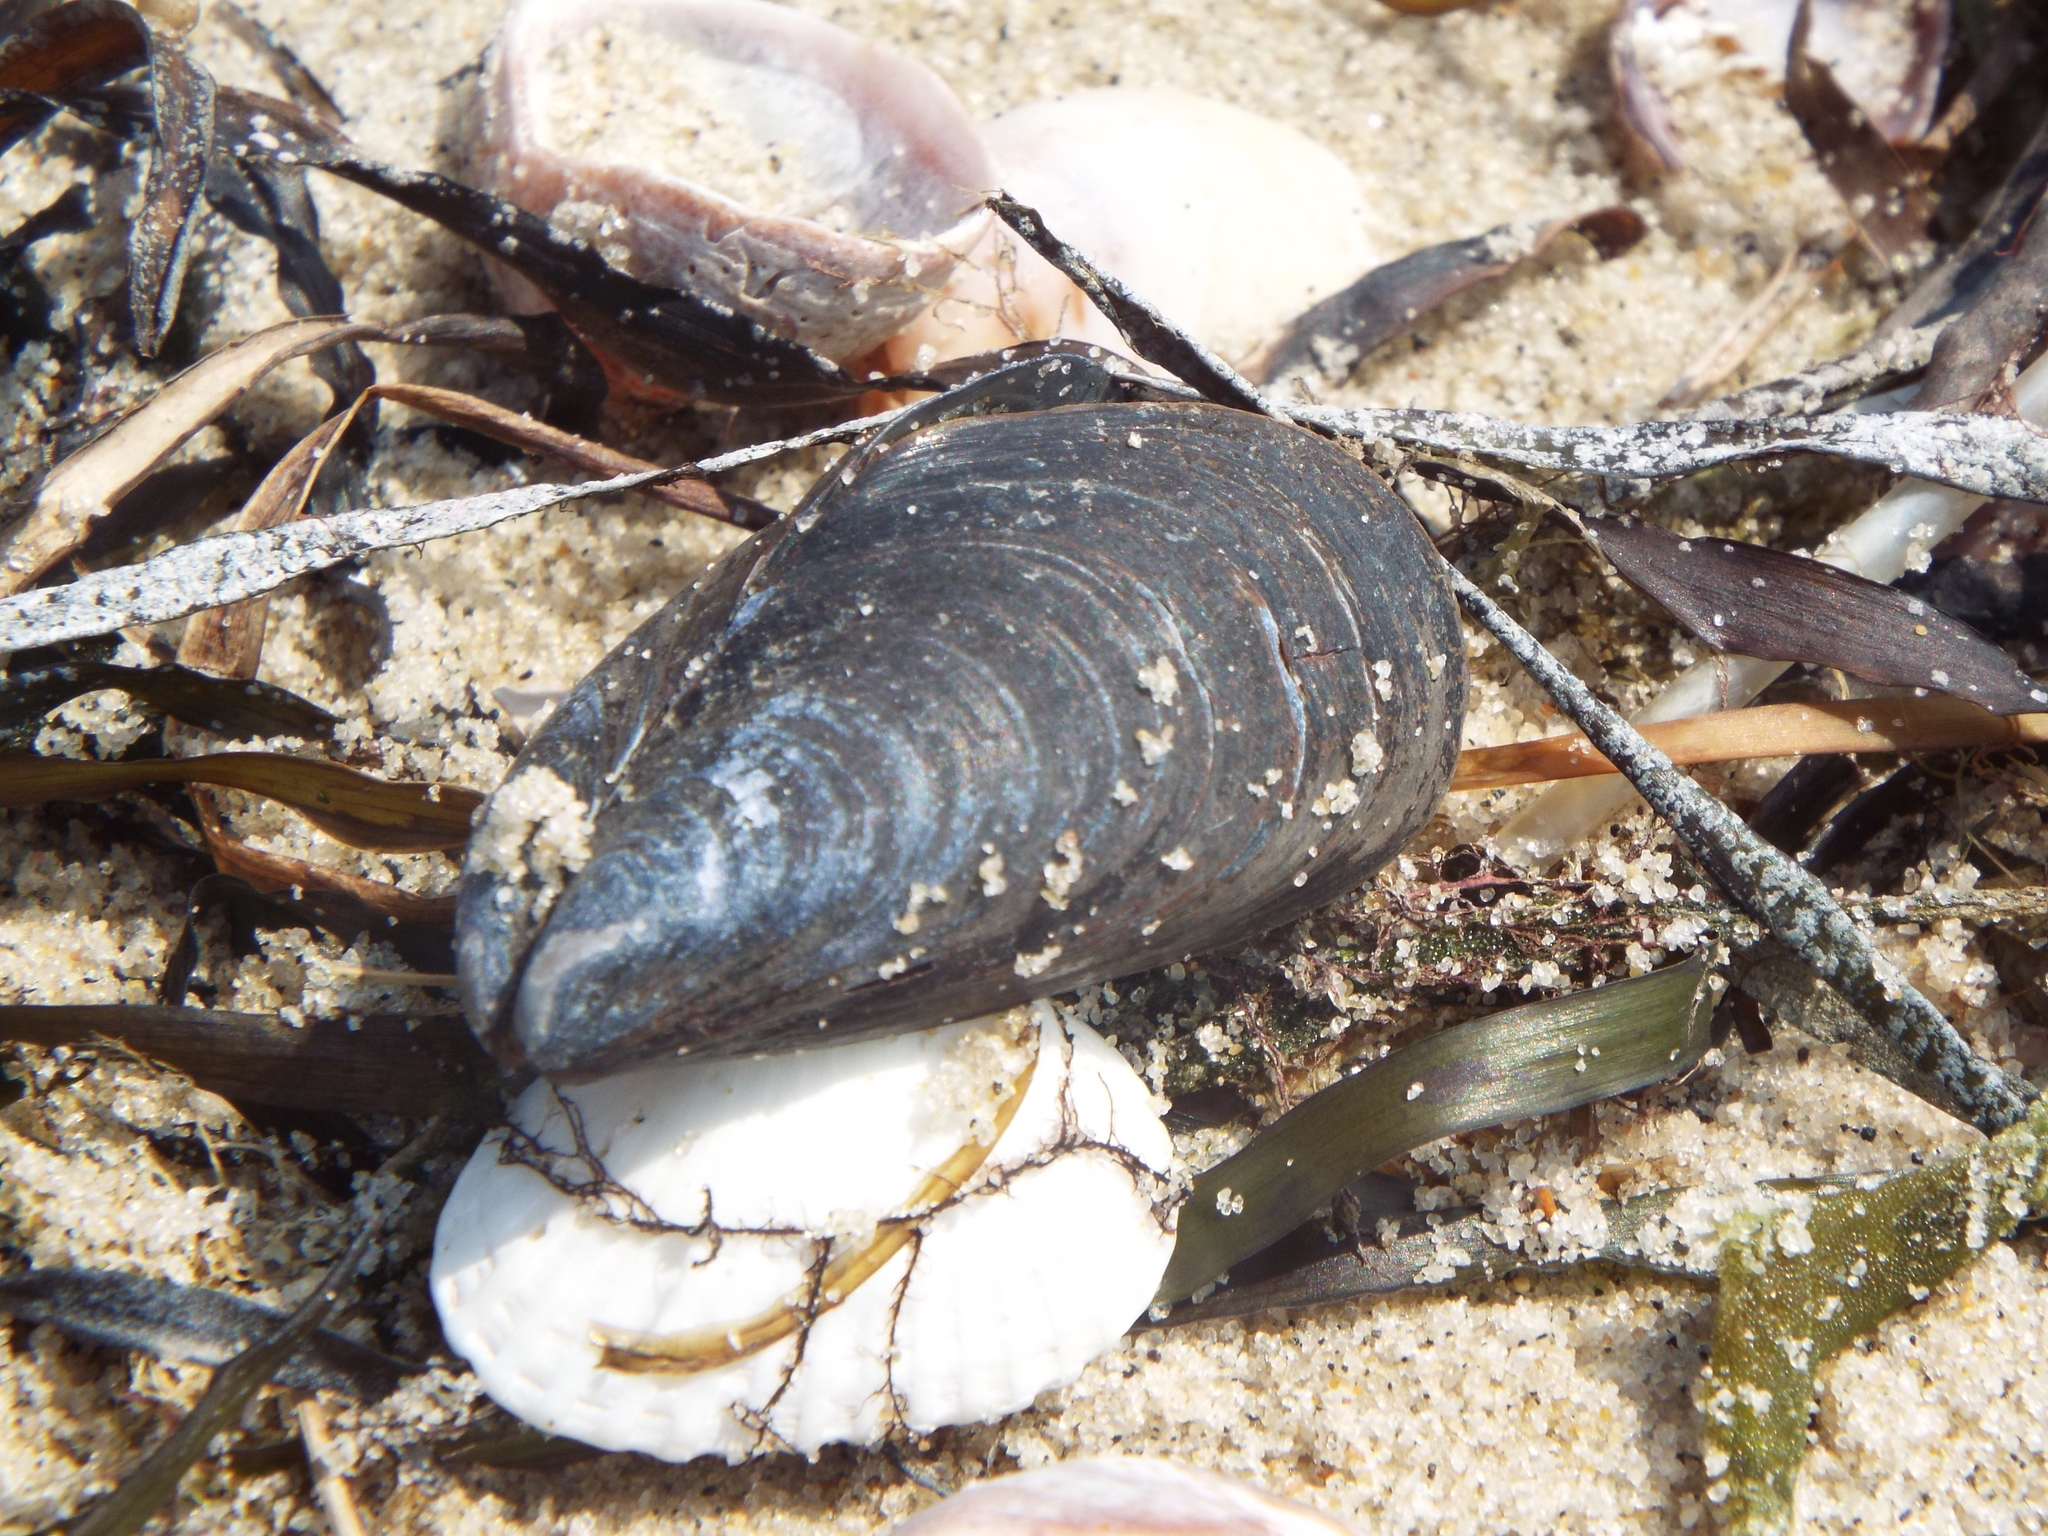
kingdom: Animalia
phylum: Mollusca
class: Bivalvia
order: Mytilida
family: Mytilidae
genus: Mytilus
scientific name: Mytilus edulis
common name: Blue mussel
